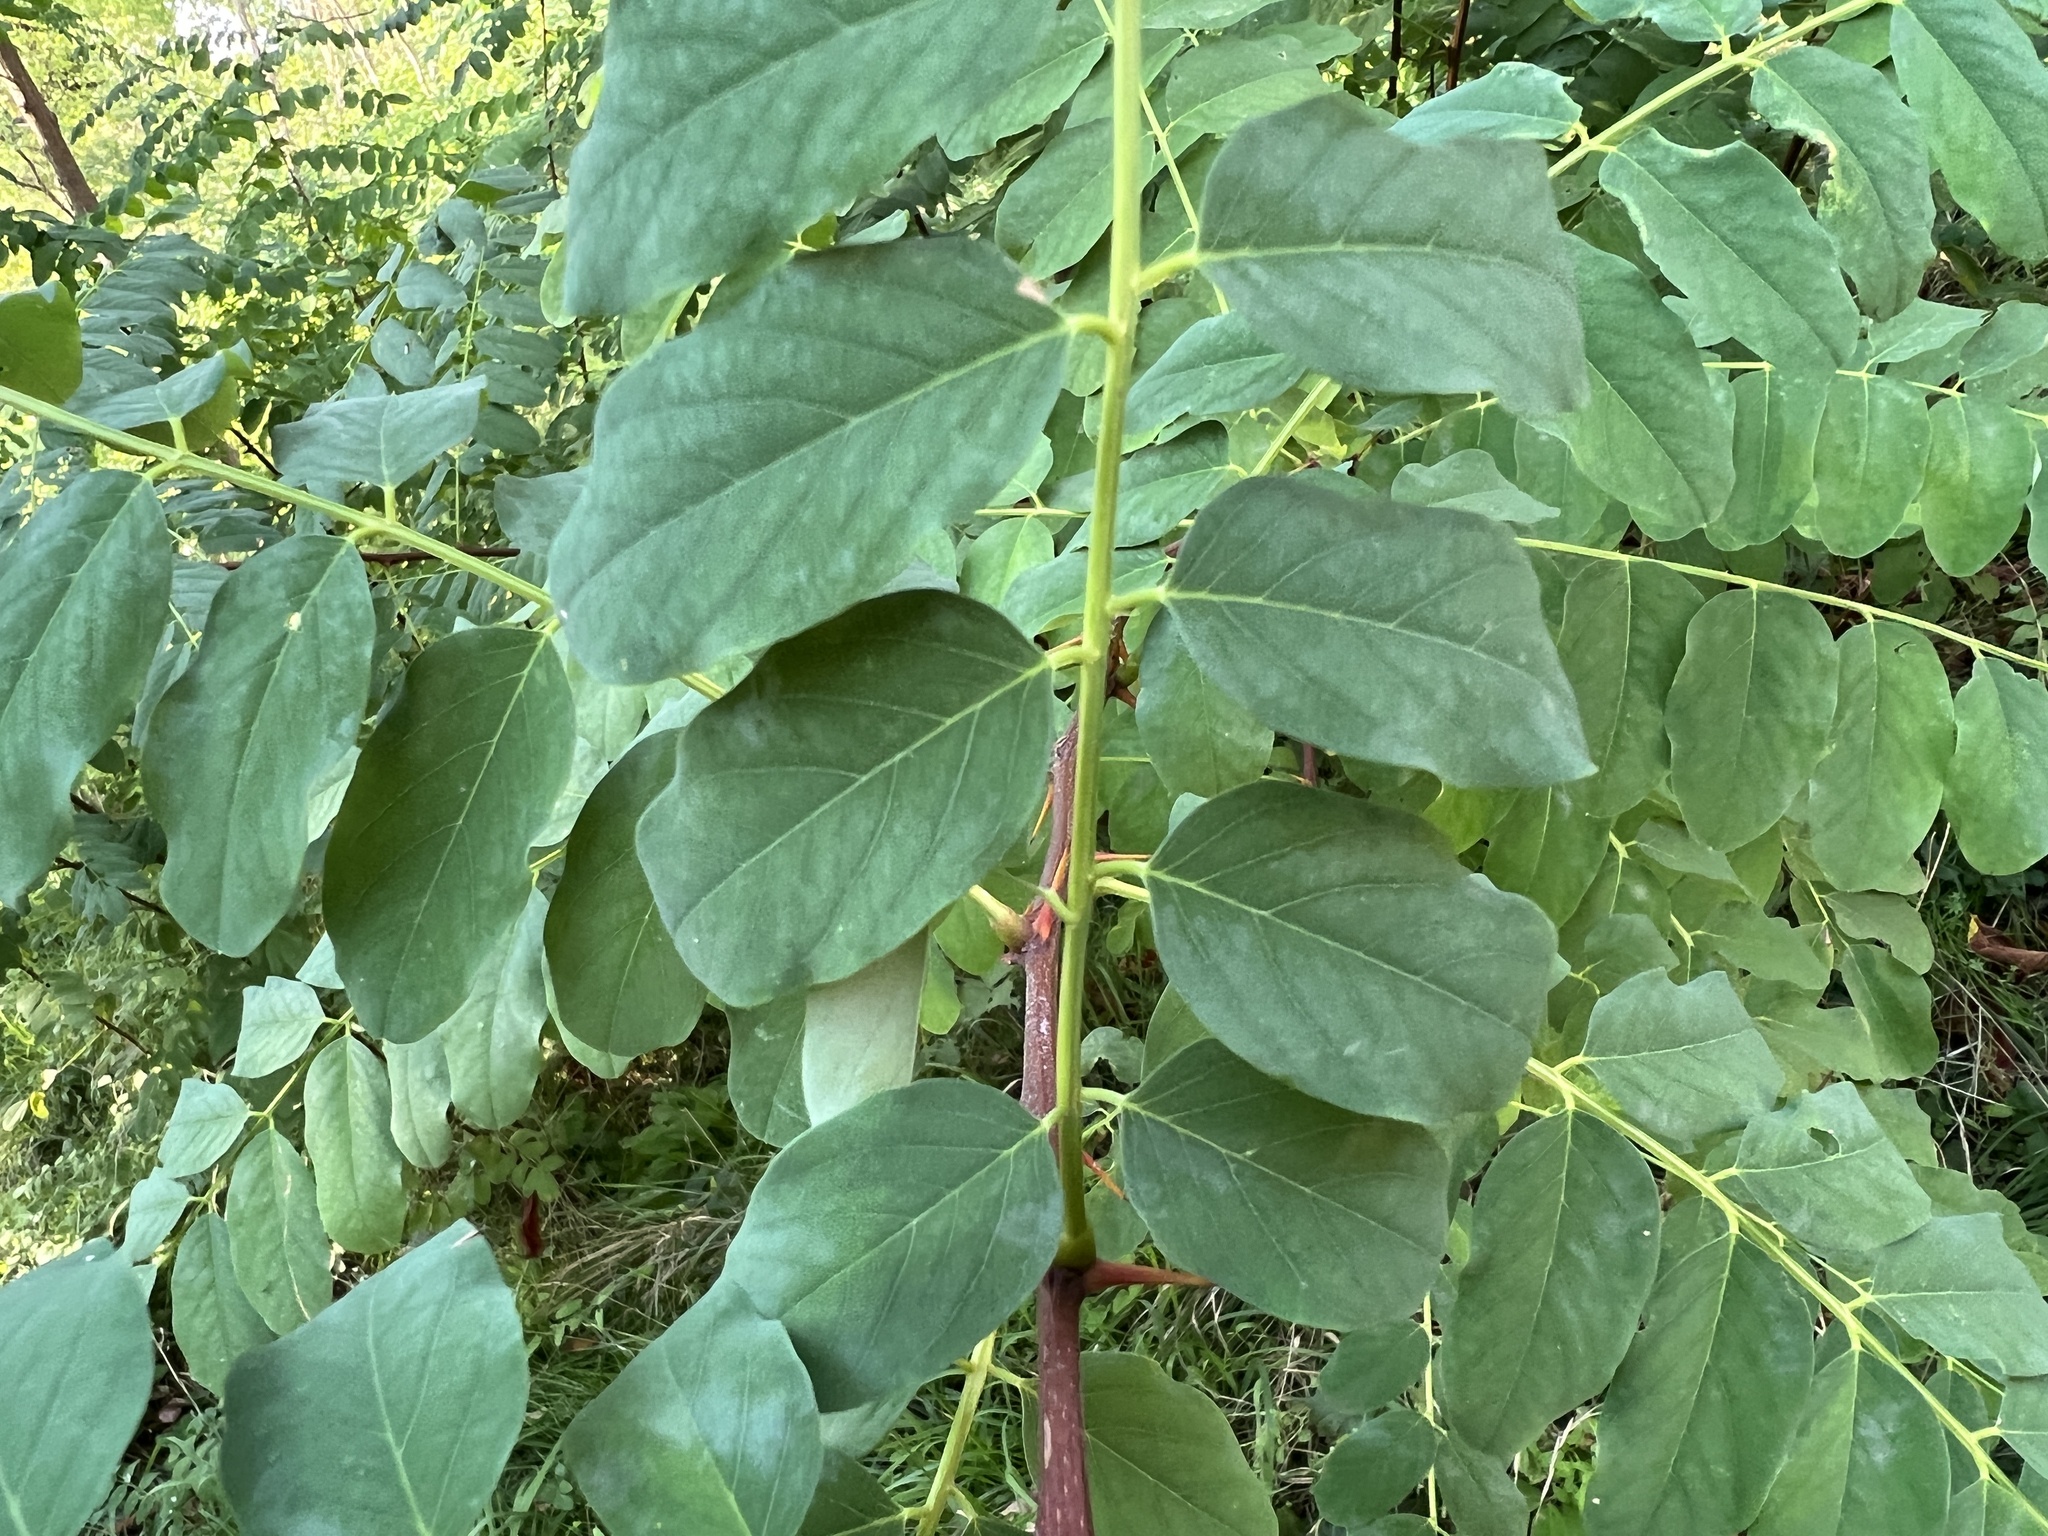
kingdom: Plantae
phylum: Tracheophyta
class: Magnoliopsida
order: Fabales
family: Fabaceae
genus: Robinia
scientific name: Robinia pseudoacacia
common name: Black locust
